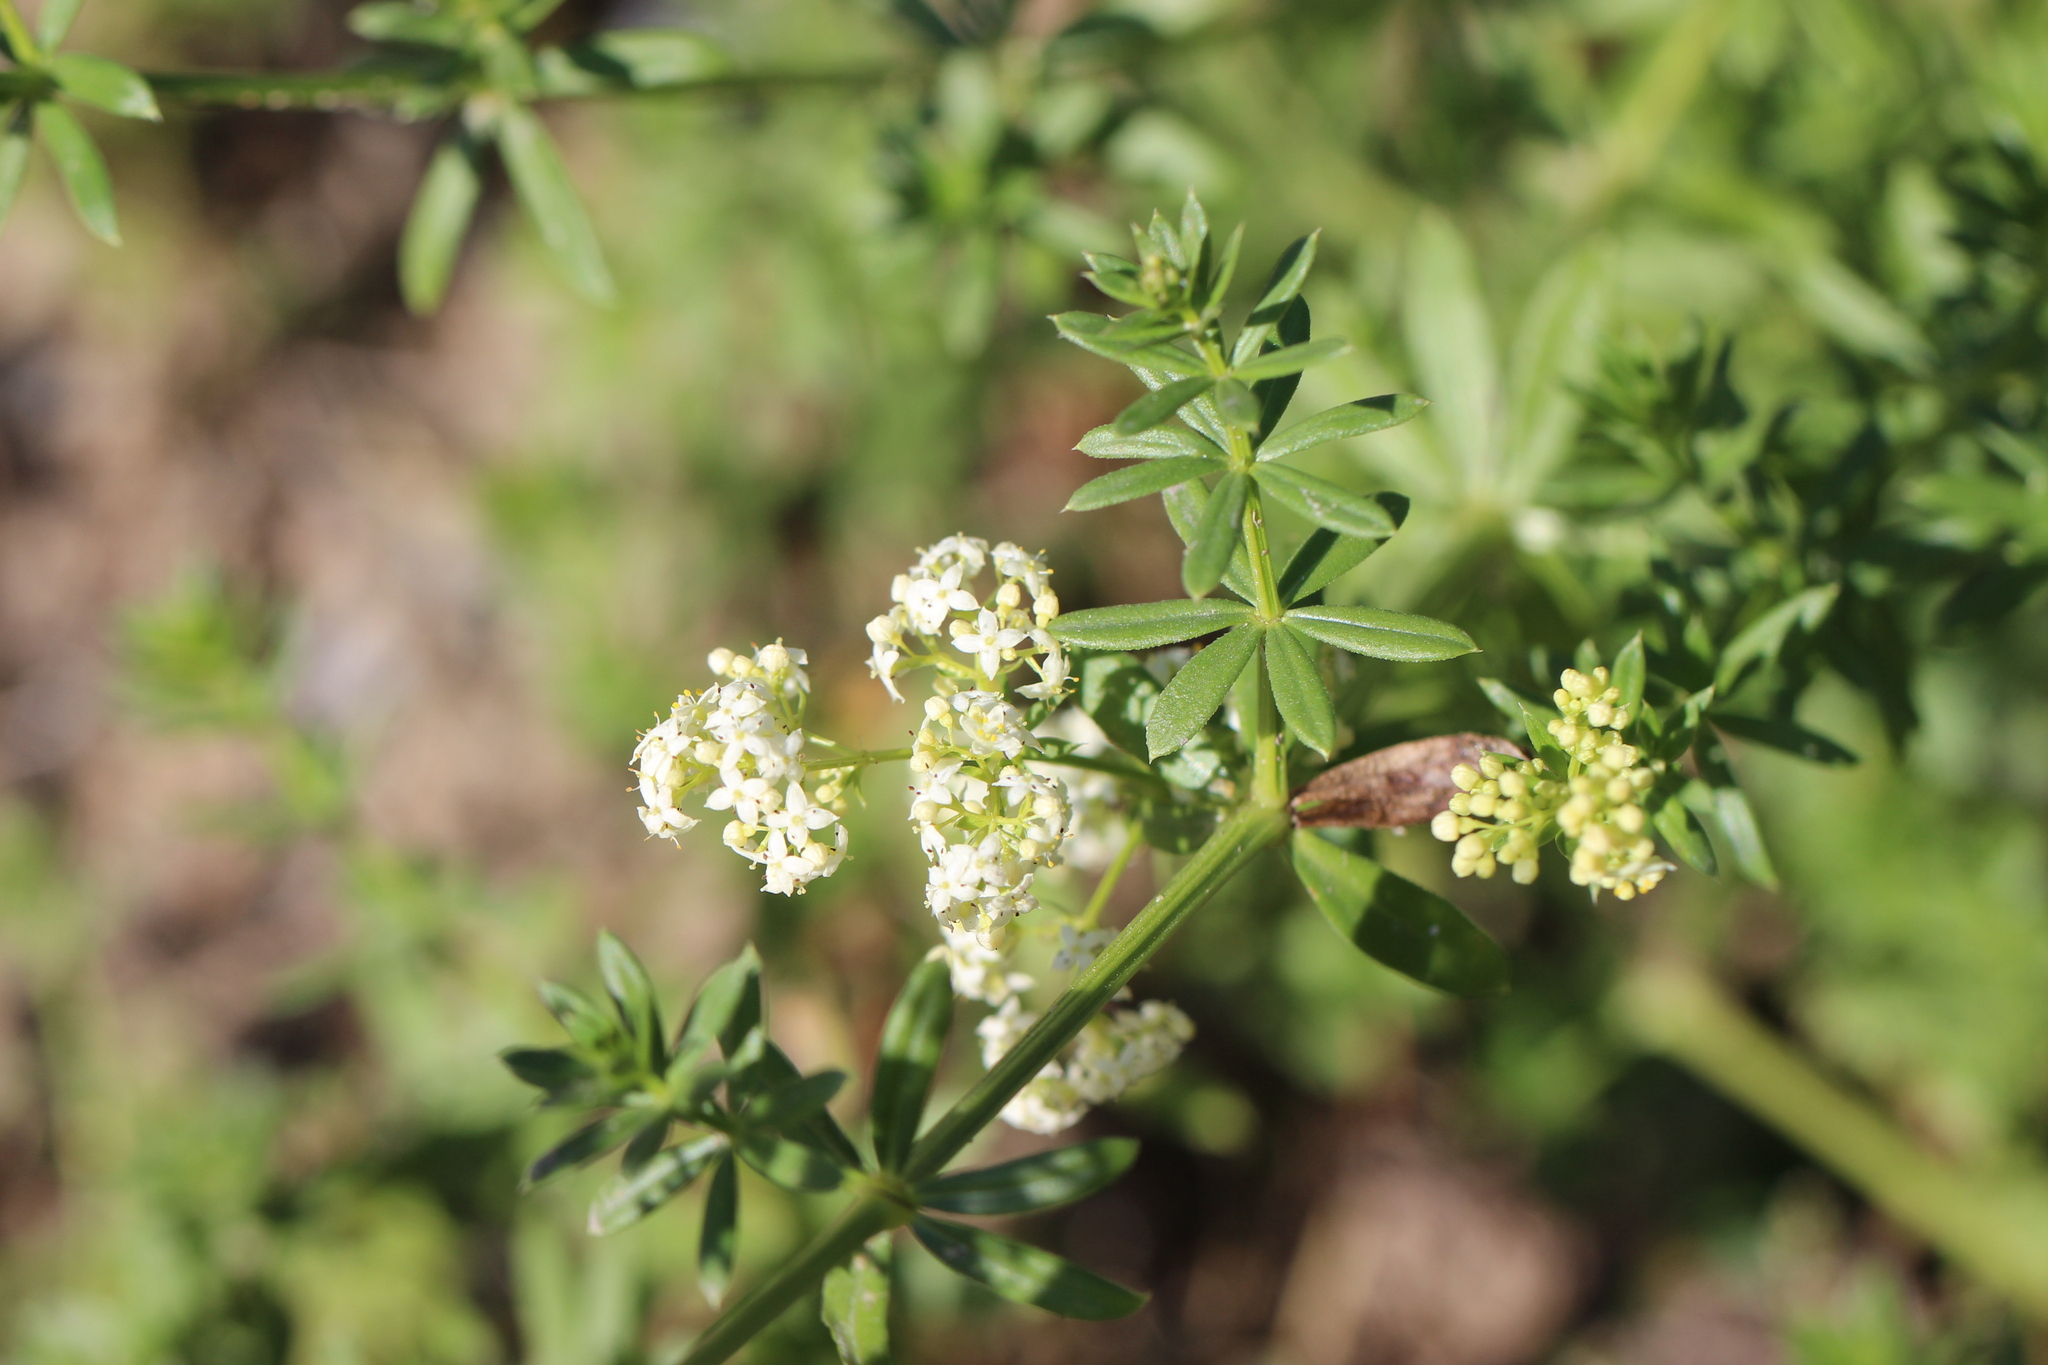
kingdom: Plantae
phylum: Tracheophyta
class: Magnoliopsida
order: Gentianales
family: Rubiaceae
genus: Galium
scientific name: Galium mollugo
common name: Hedge bedstraw
